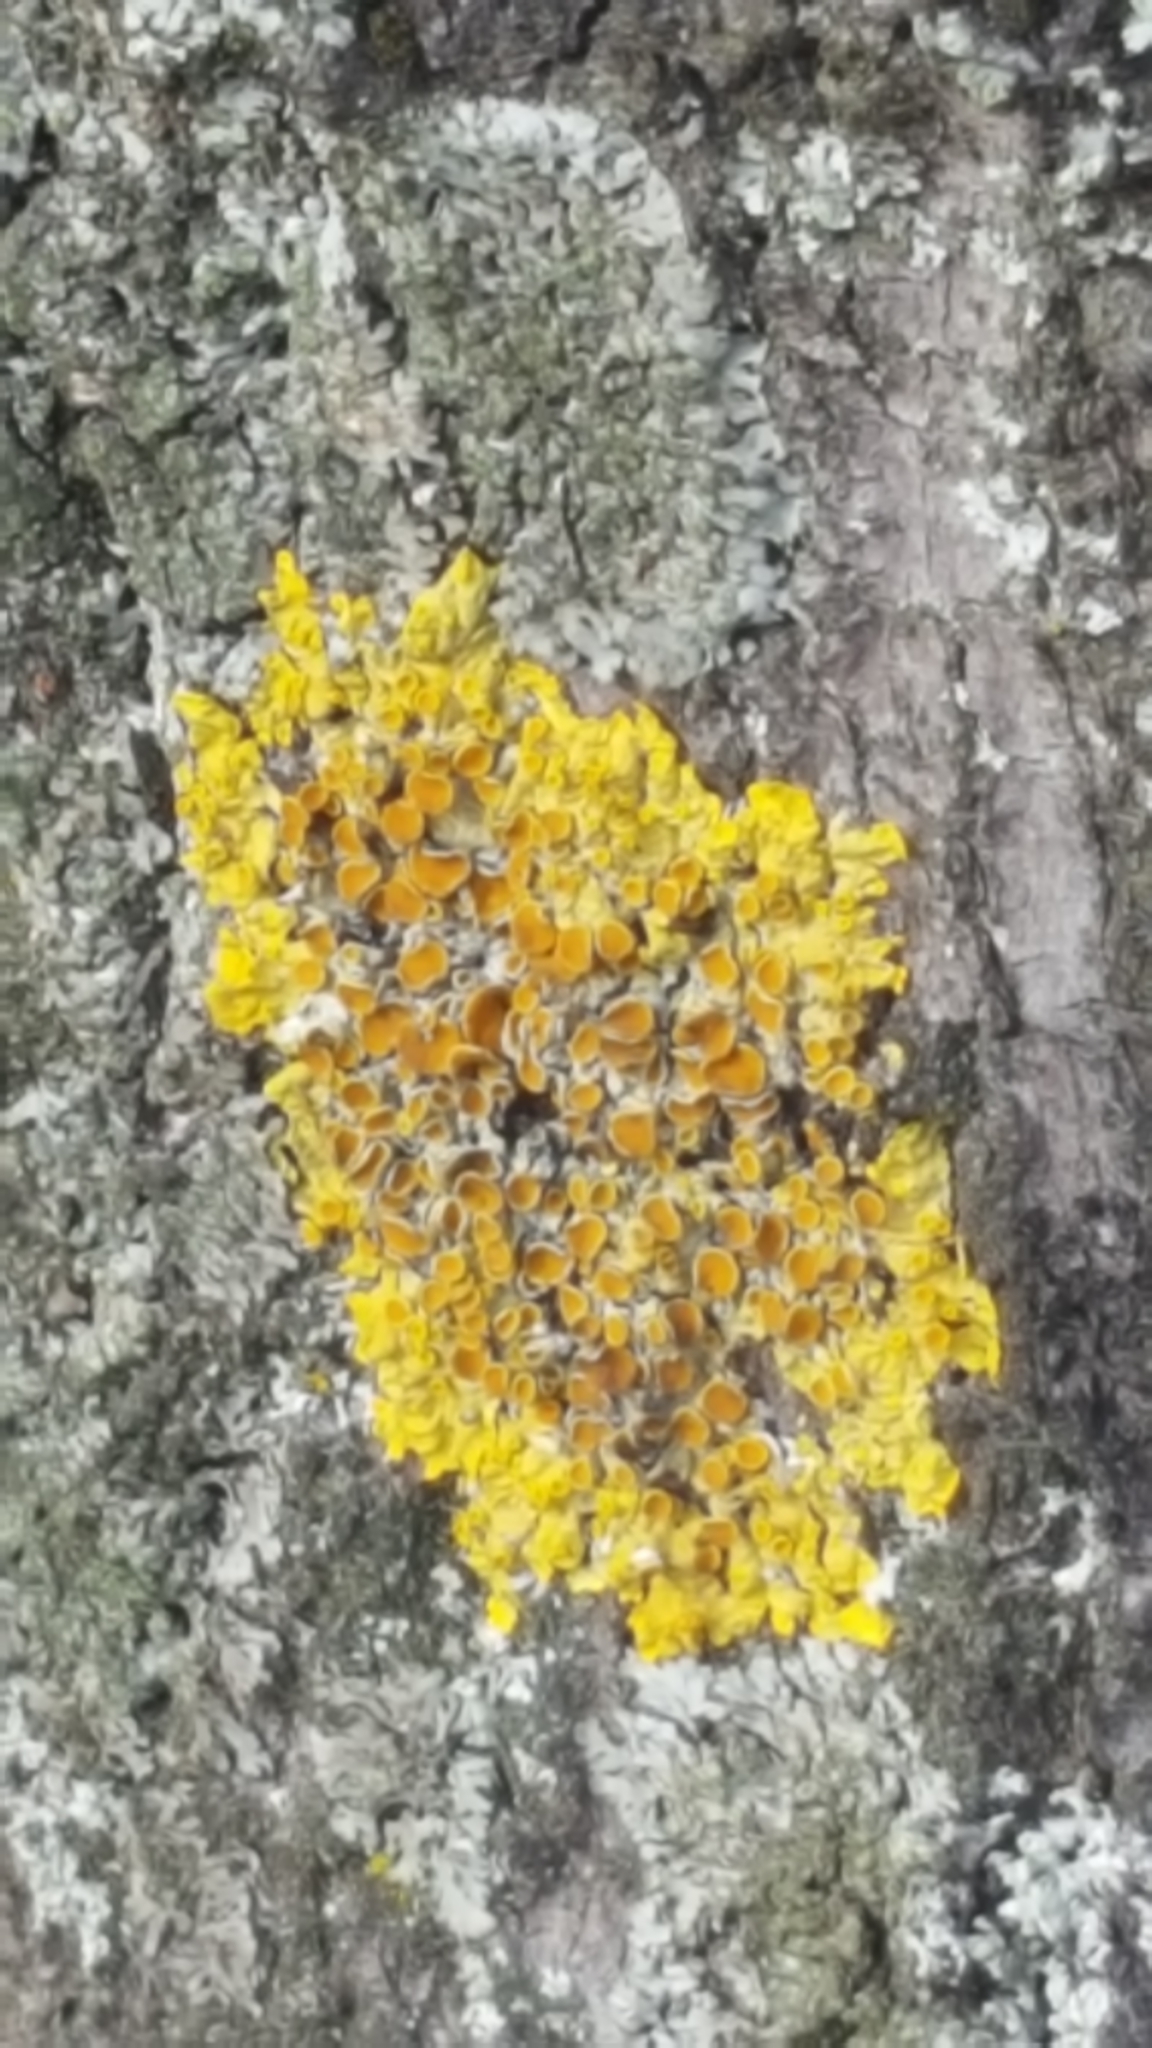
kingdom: Fungi
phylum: Ascomycota
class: Lecanoromycetes
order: Teloschistales
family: Teloschistaceae
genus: Xanthoria
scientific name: Xanthoria parietina
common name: Common orange lichen
